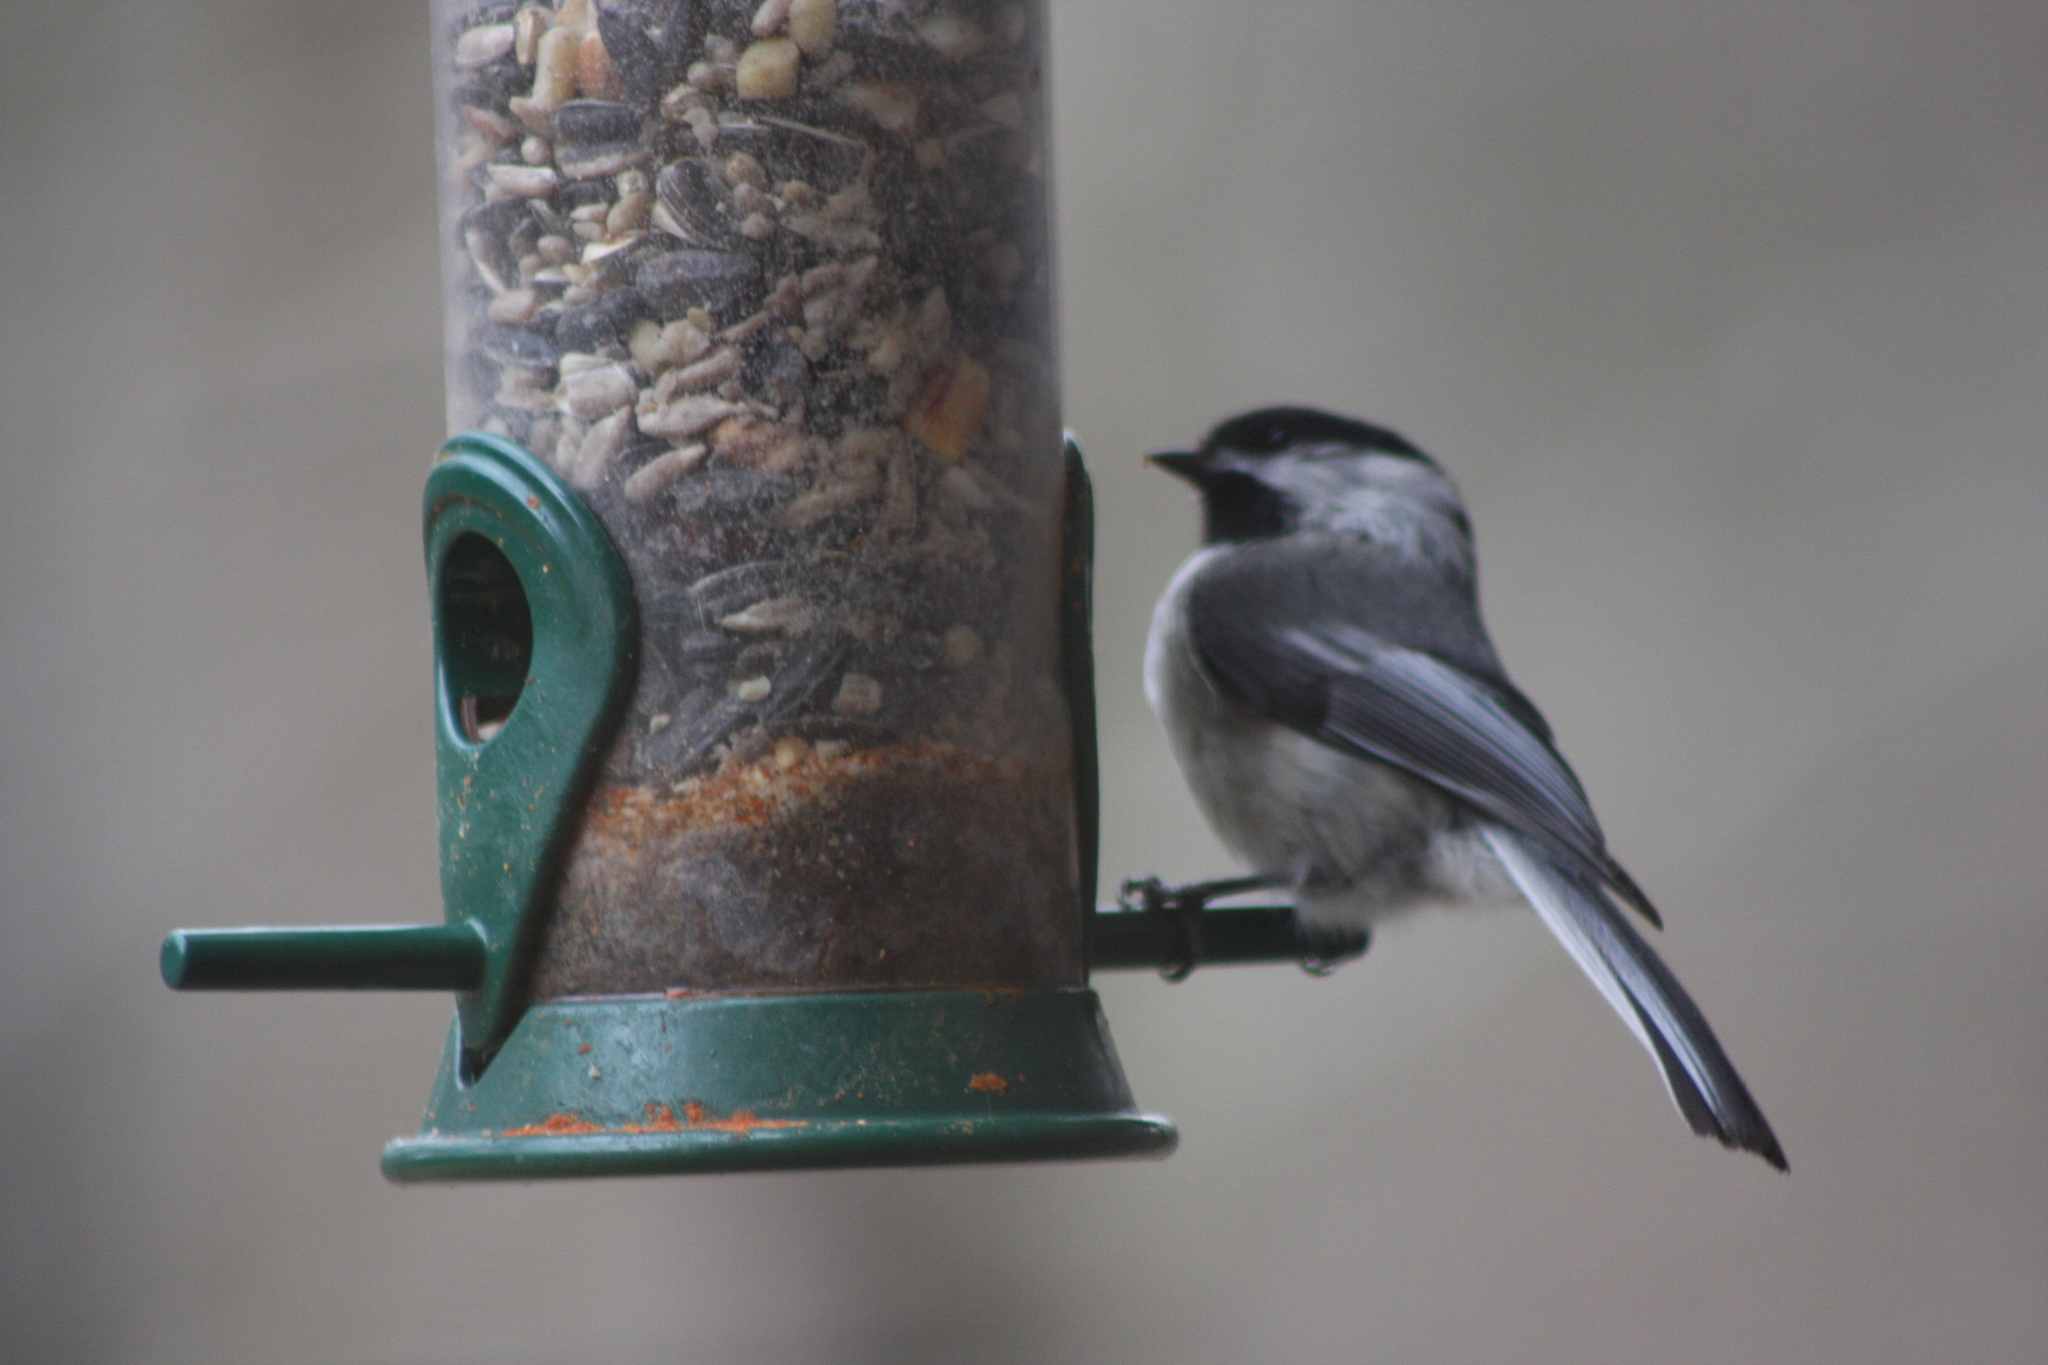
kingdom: Animalia
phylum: Chordata
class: Aves
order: Passeriformes
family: Paridae
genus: Poecile
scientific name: Poecile atricapillus
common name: Black-capped chickadee
